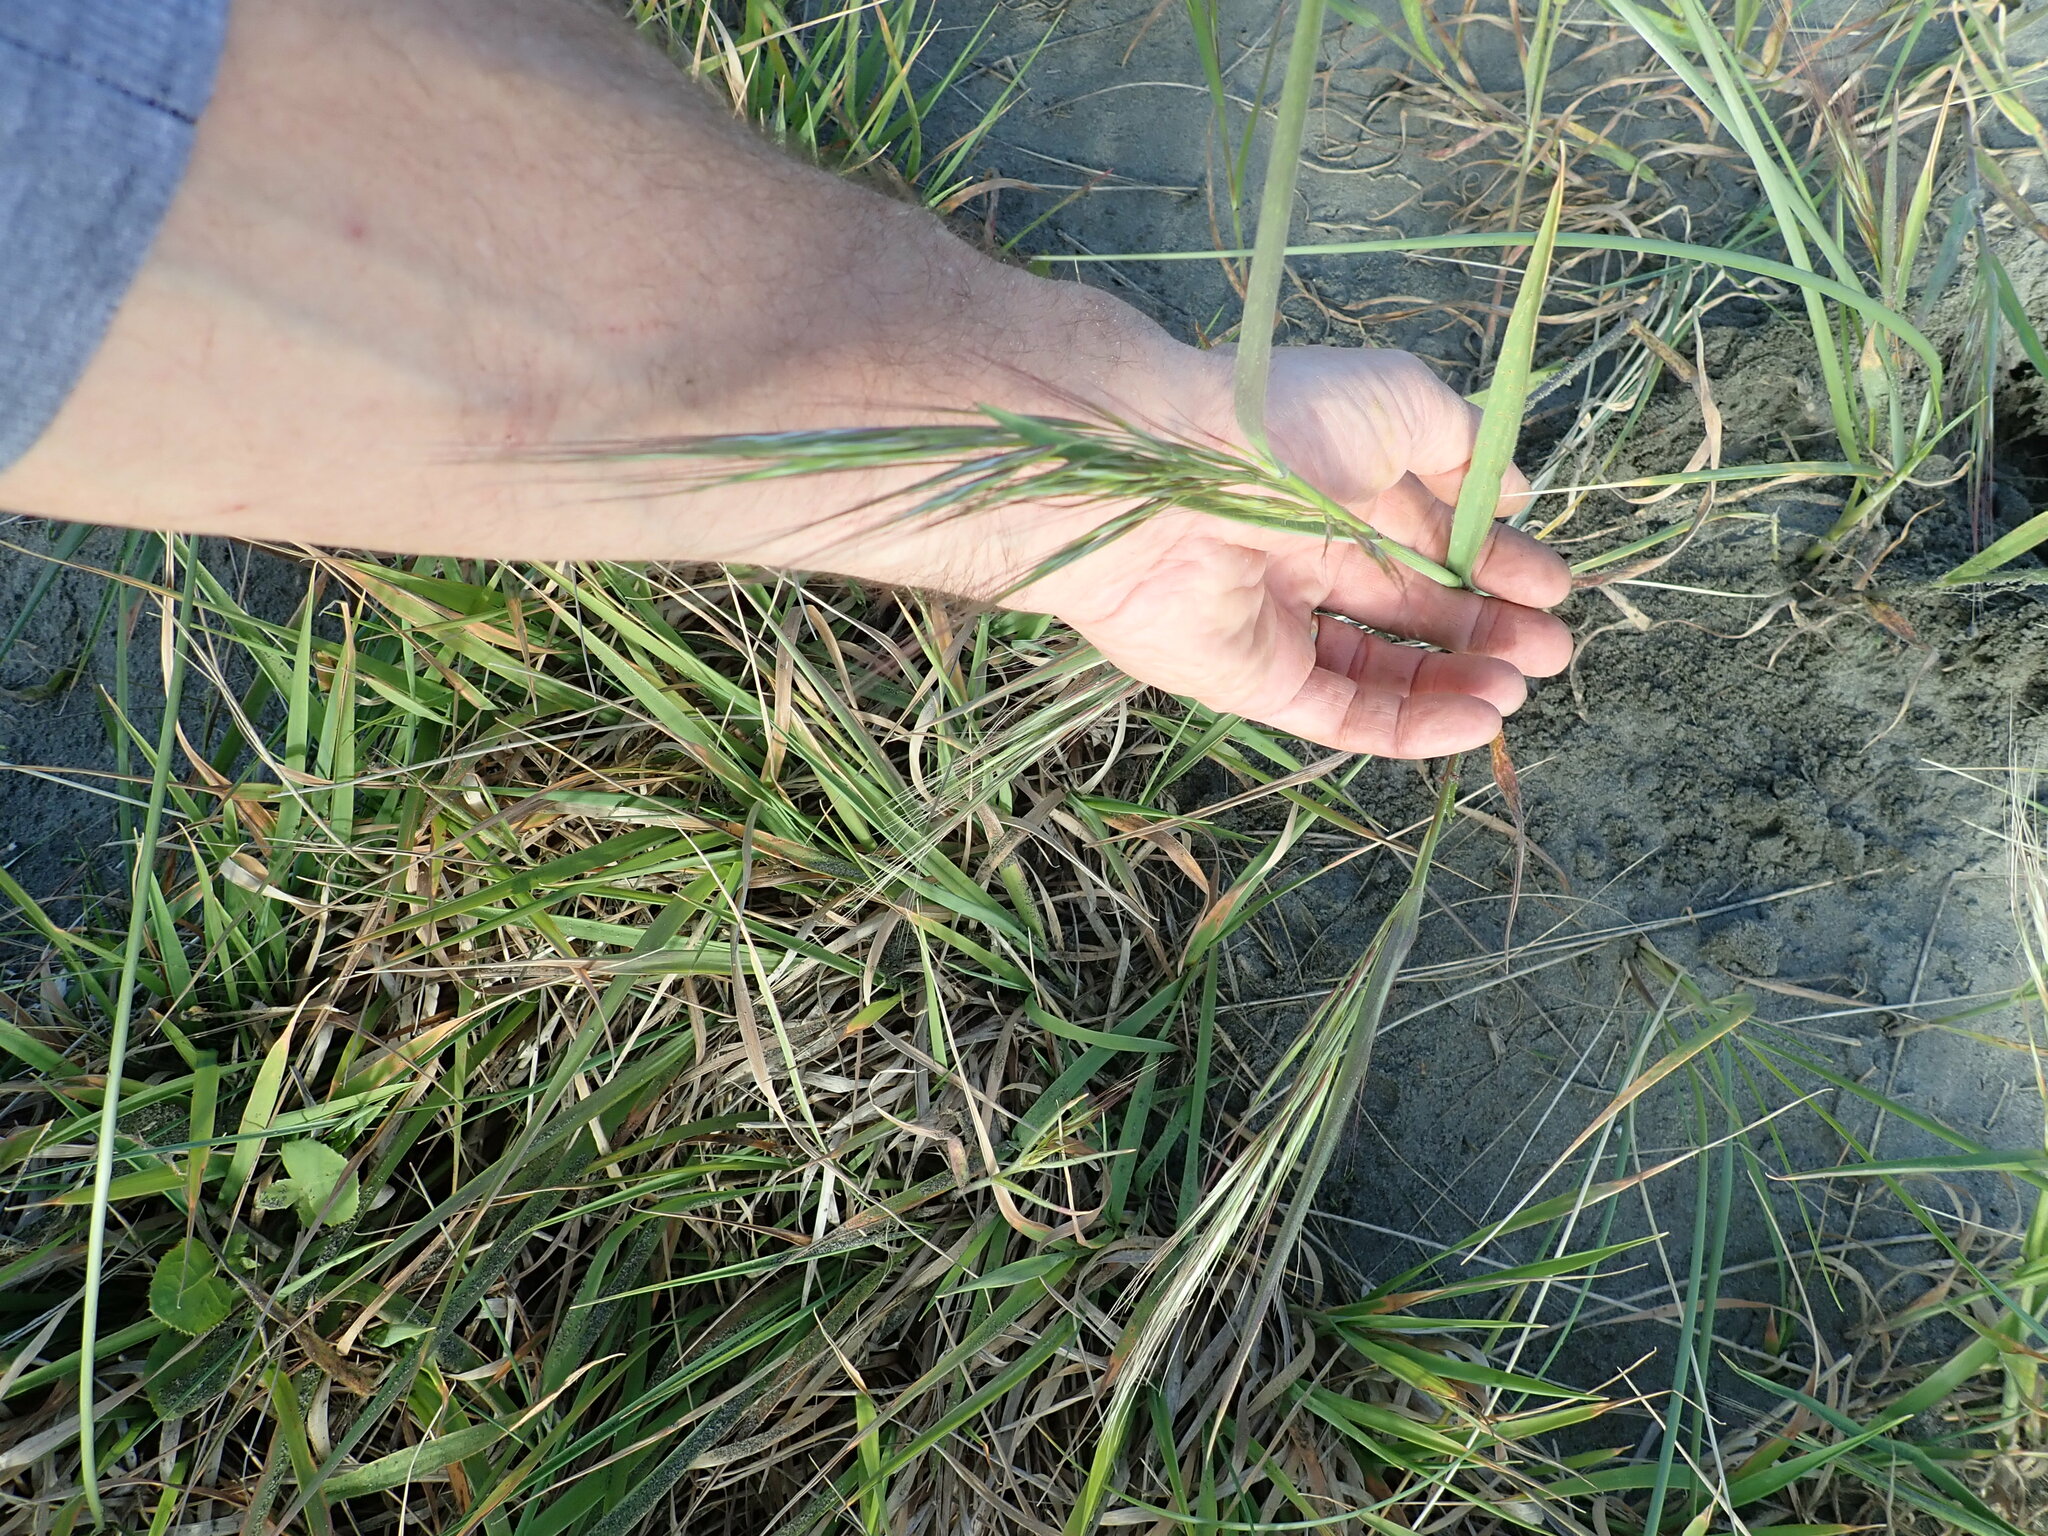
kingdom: Plantae
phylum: Tracheophyta
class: Liliopsida
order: Poales
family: Poaceae
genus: Bromus
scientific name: Bromus diandrus
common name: Ripgut brome
